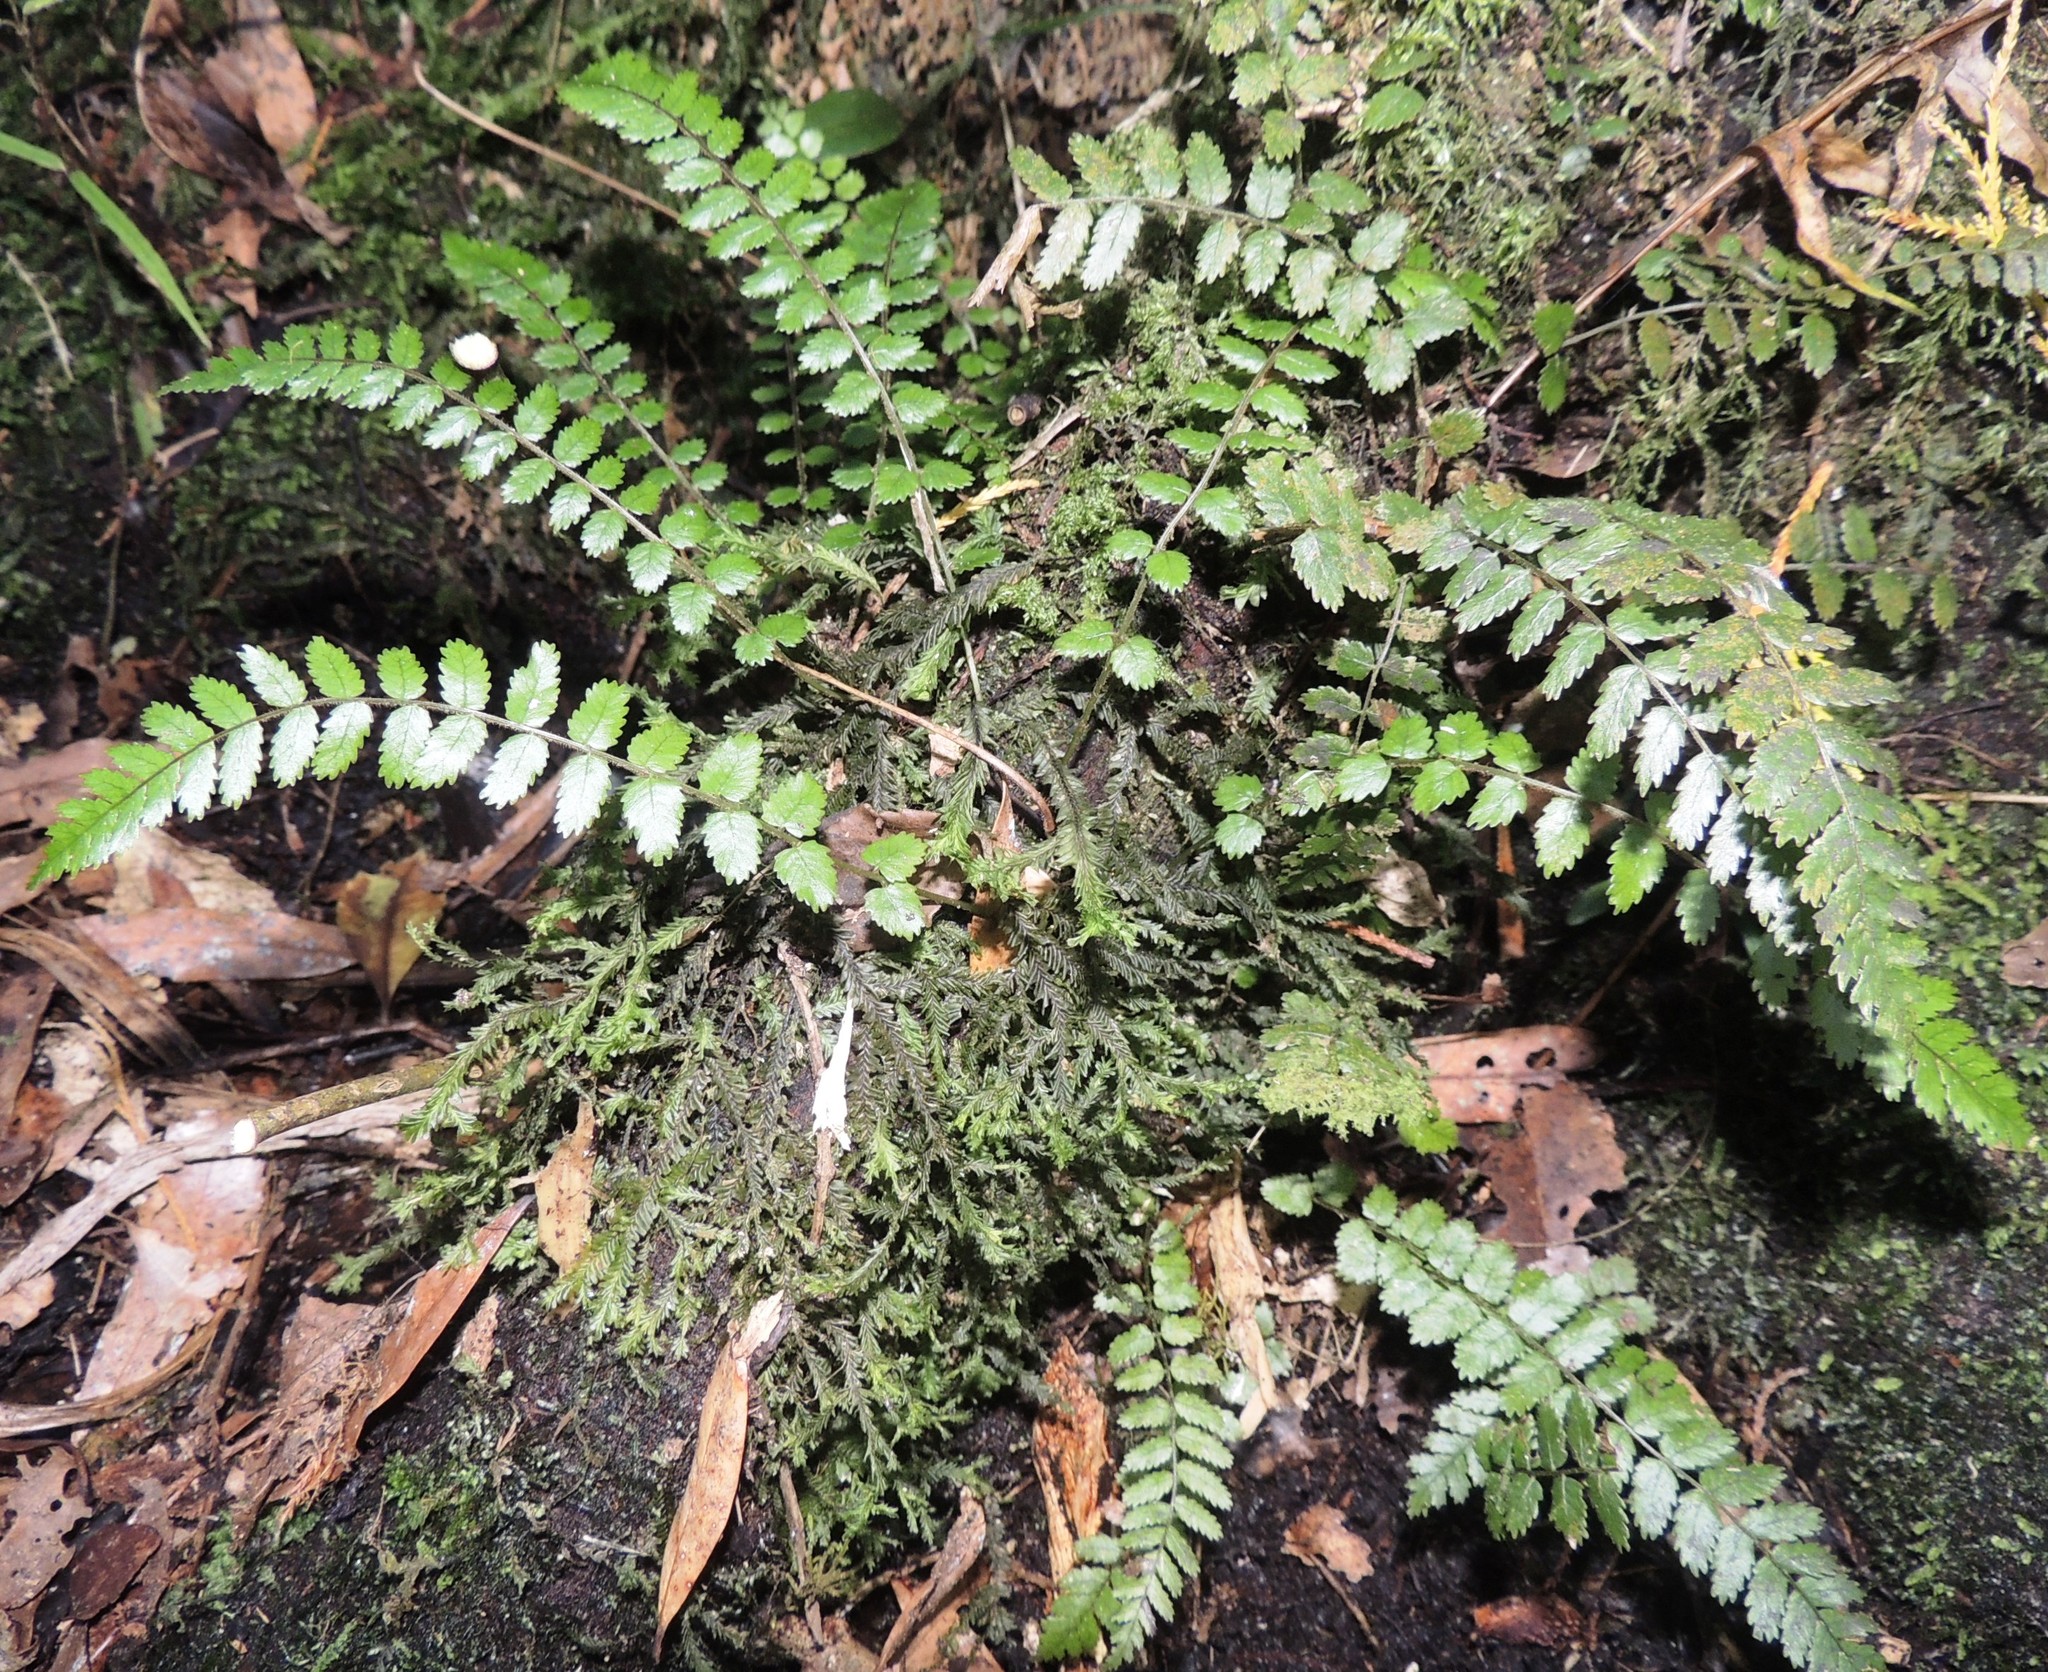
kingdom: Plantae
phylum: Tracheophyta
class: Polypodiopsida
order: Polypodiales
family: Blechnaceae
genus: Icarus
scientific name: Icarus filiformis
